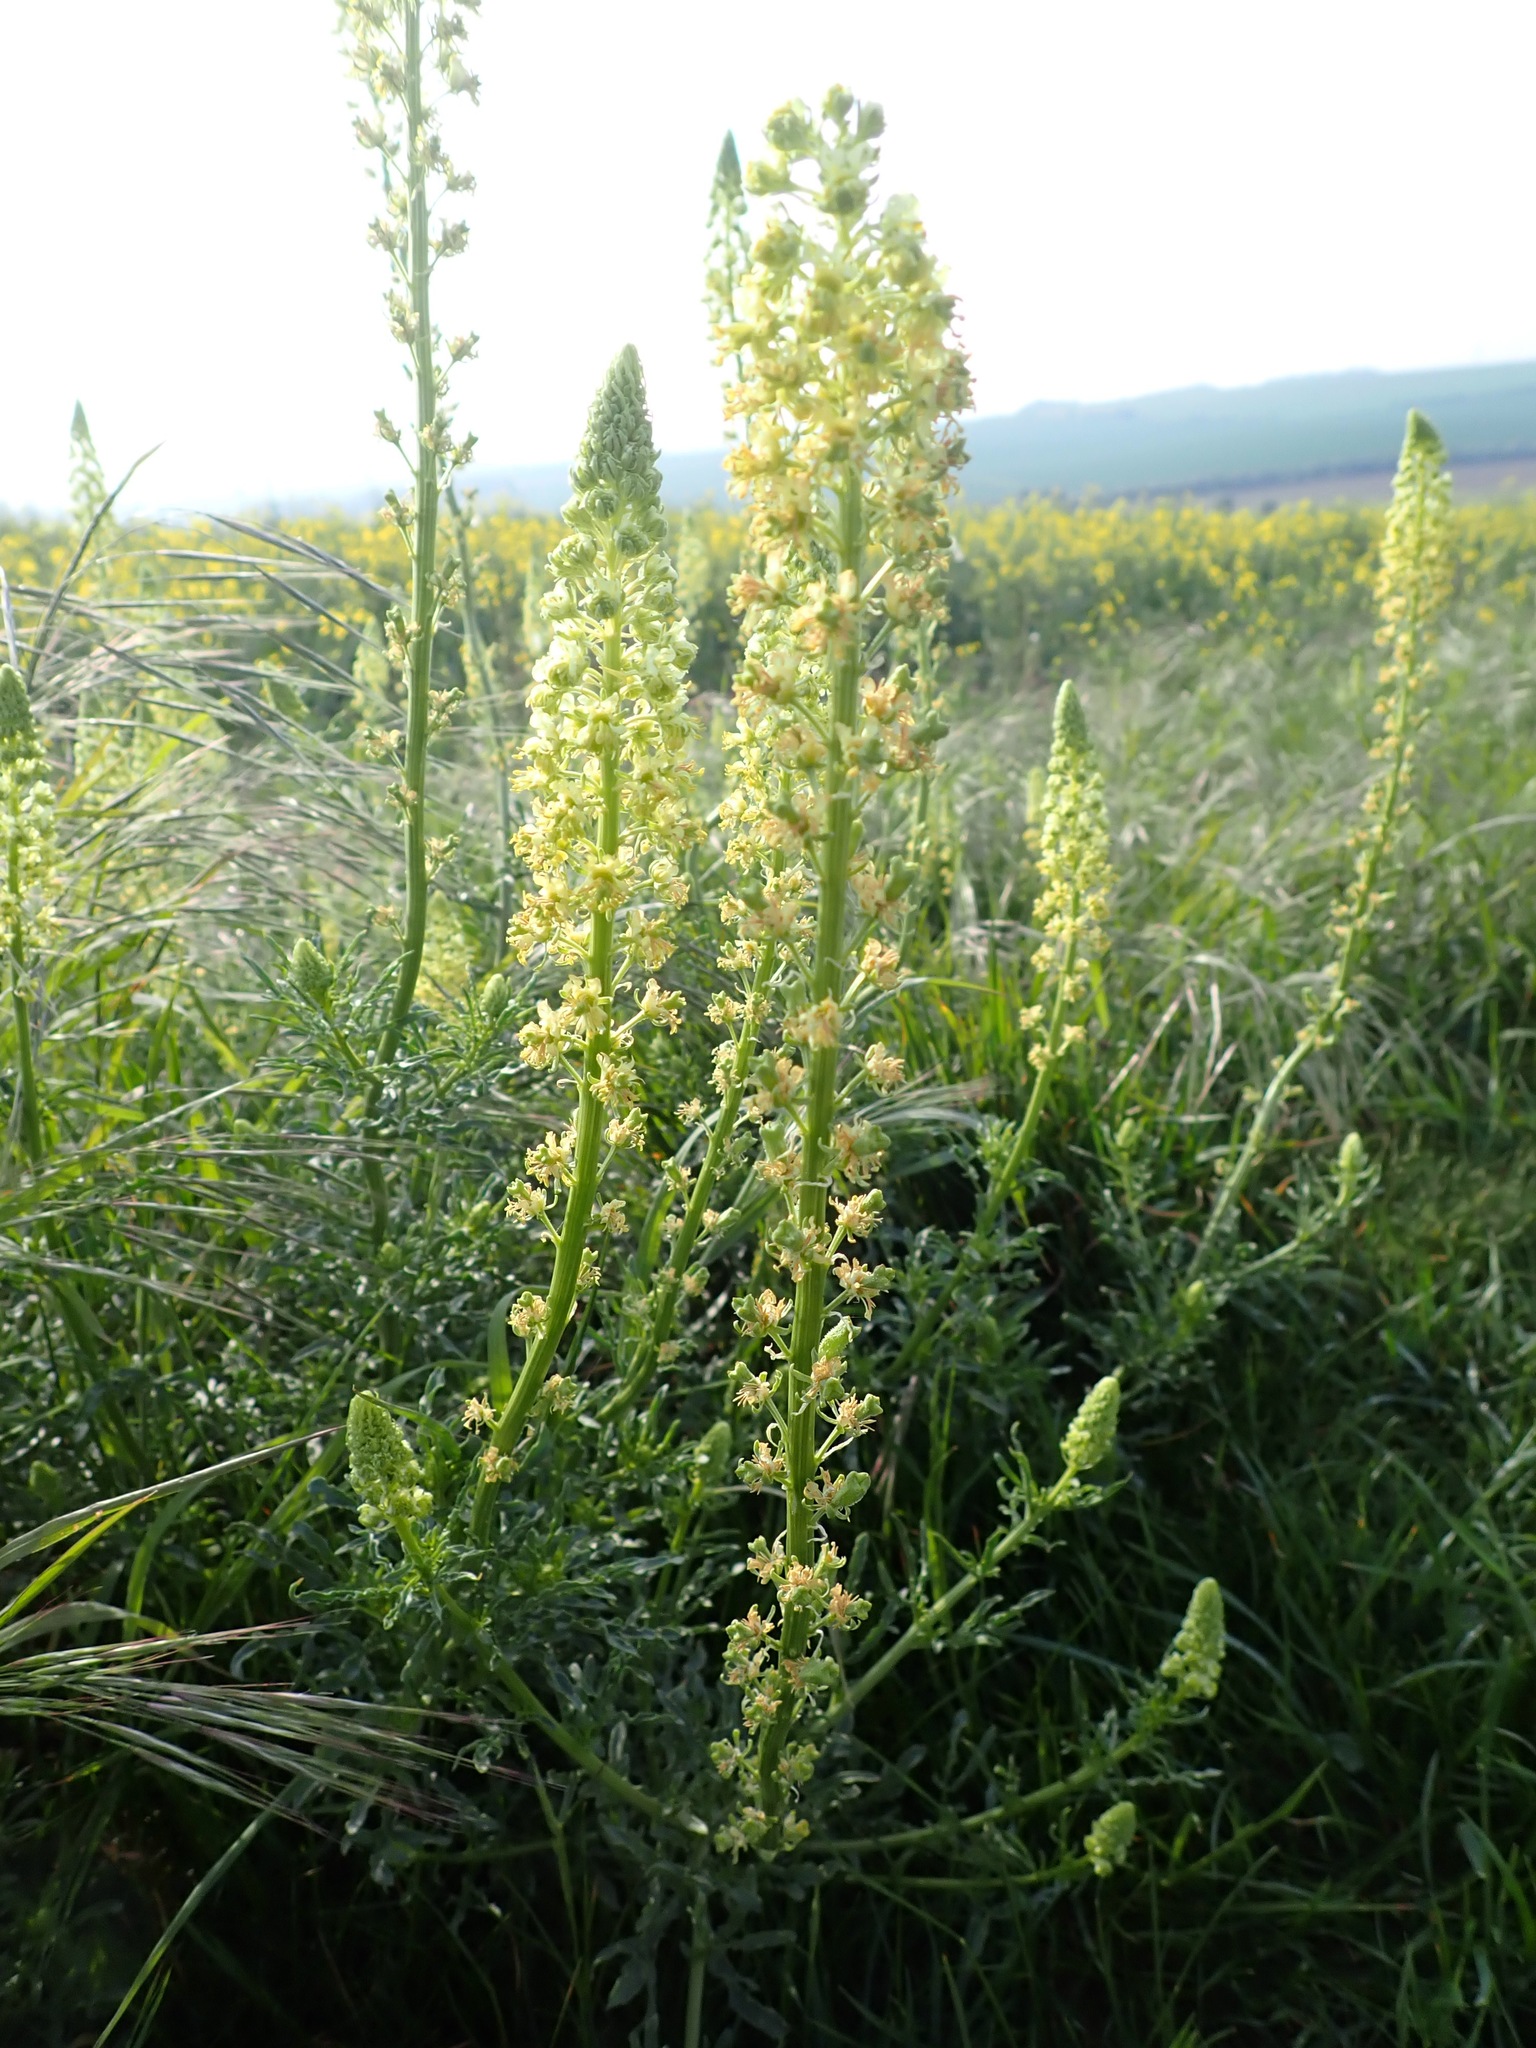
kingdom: Plantae
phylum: Tracheophyta
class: Magnoliopsida
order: Brassicales
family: Resedaceae
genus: Reseda
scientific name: Reseda lutea
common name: Wild mignonette
